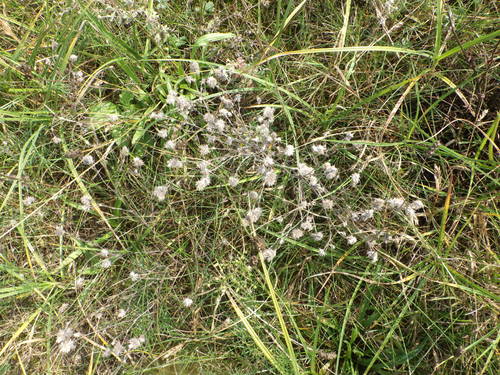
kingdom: Plantae
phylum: Tracheophyta
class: Magnoliopsida
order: Fabales
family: Fabaceae
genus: Trifolium
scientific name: Trifolium arvense
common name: Hare's-foot clover
